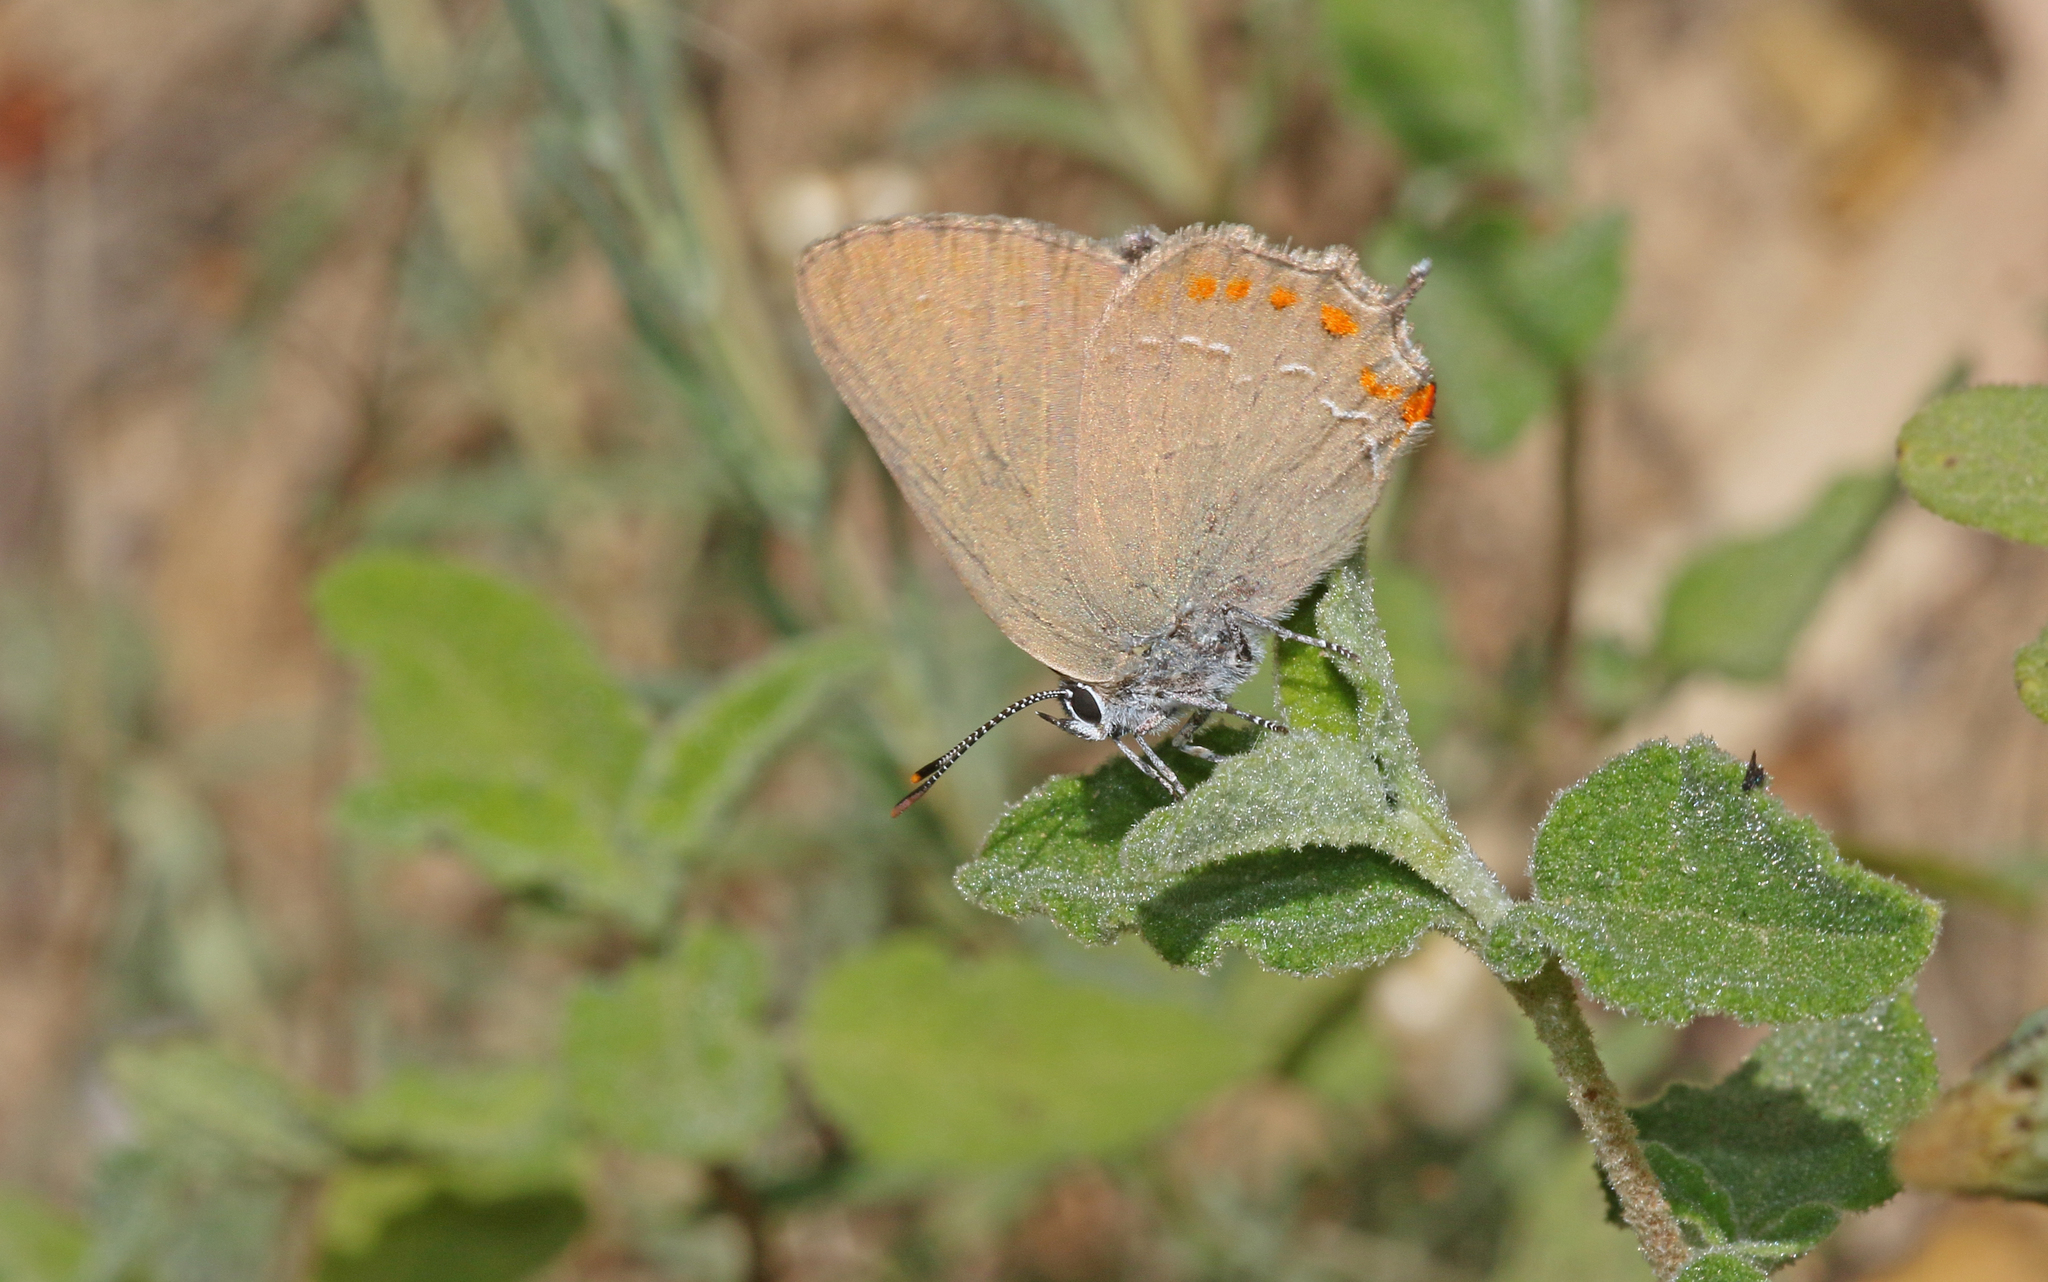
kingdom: Animalia
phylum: Arthropoda
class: Insecta
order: Lepidoptera
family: Lycaenidae
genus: Fixsenia
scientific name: Fixsenia esculi
